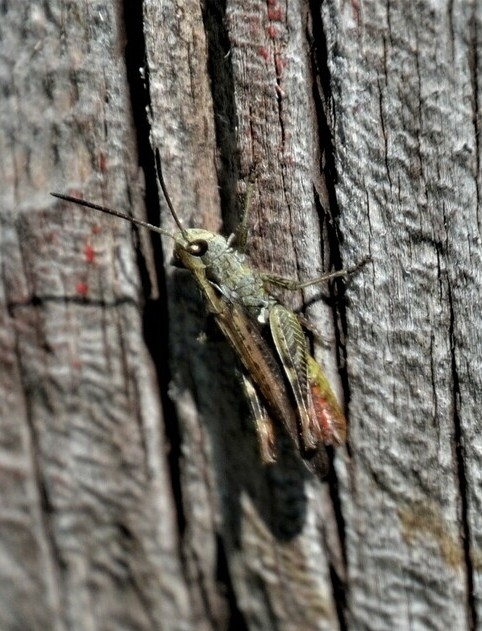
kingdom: Animalia
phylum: Arthropoda
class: Insecta
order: Orthoptera
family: Acrididae
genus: Chorthippus
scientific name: Chorthippus biguttulus
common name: Bow-winged grasshopper
